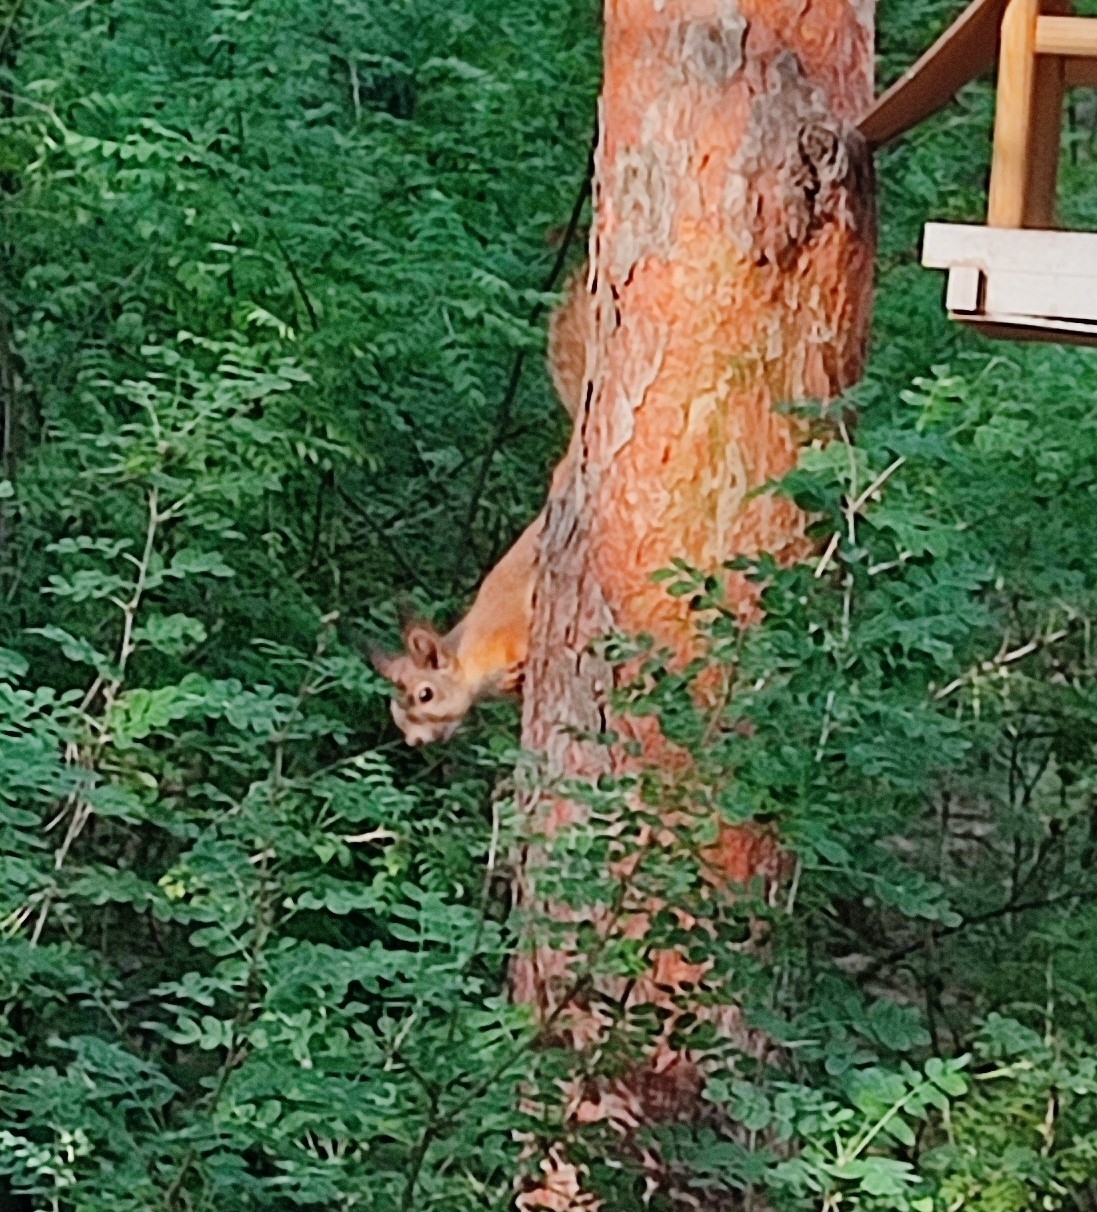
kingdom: Animalia
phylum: Chordata
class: Mammalia
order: Rodentia
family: Sciuridae
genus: Sciurus
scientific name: Sciurus vulgaris
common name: Eurasian red squirrel
